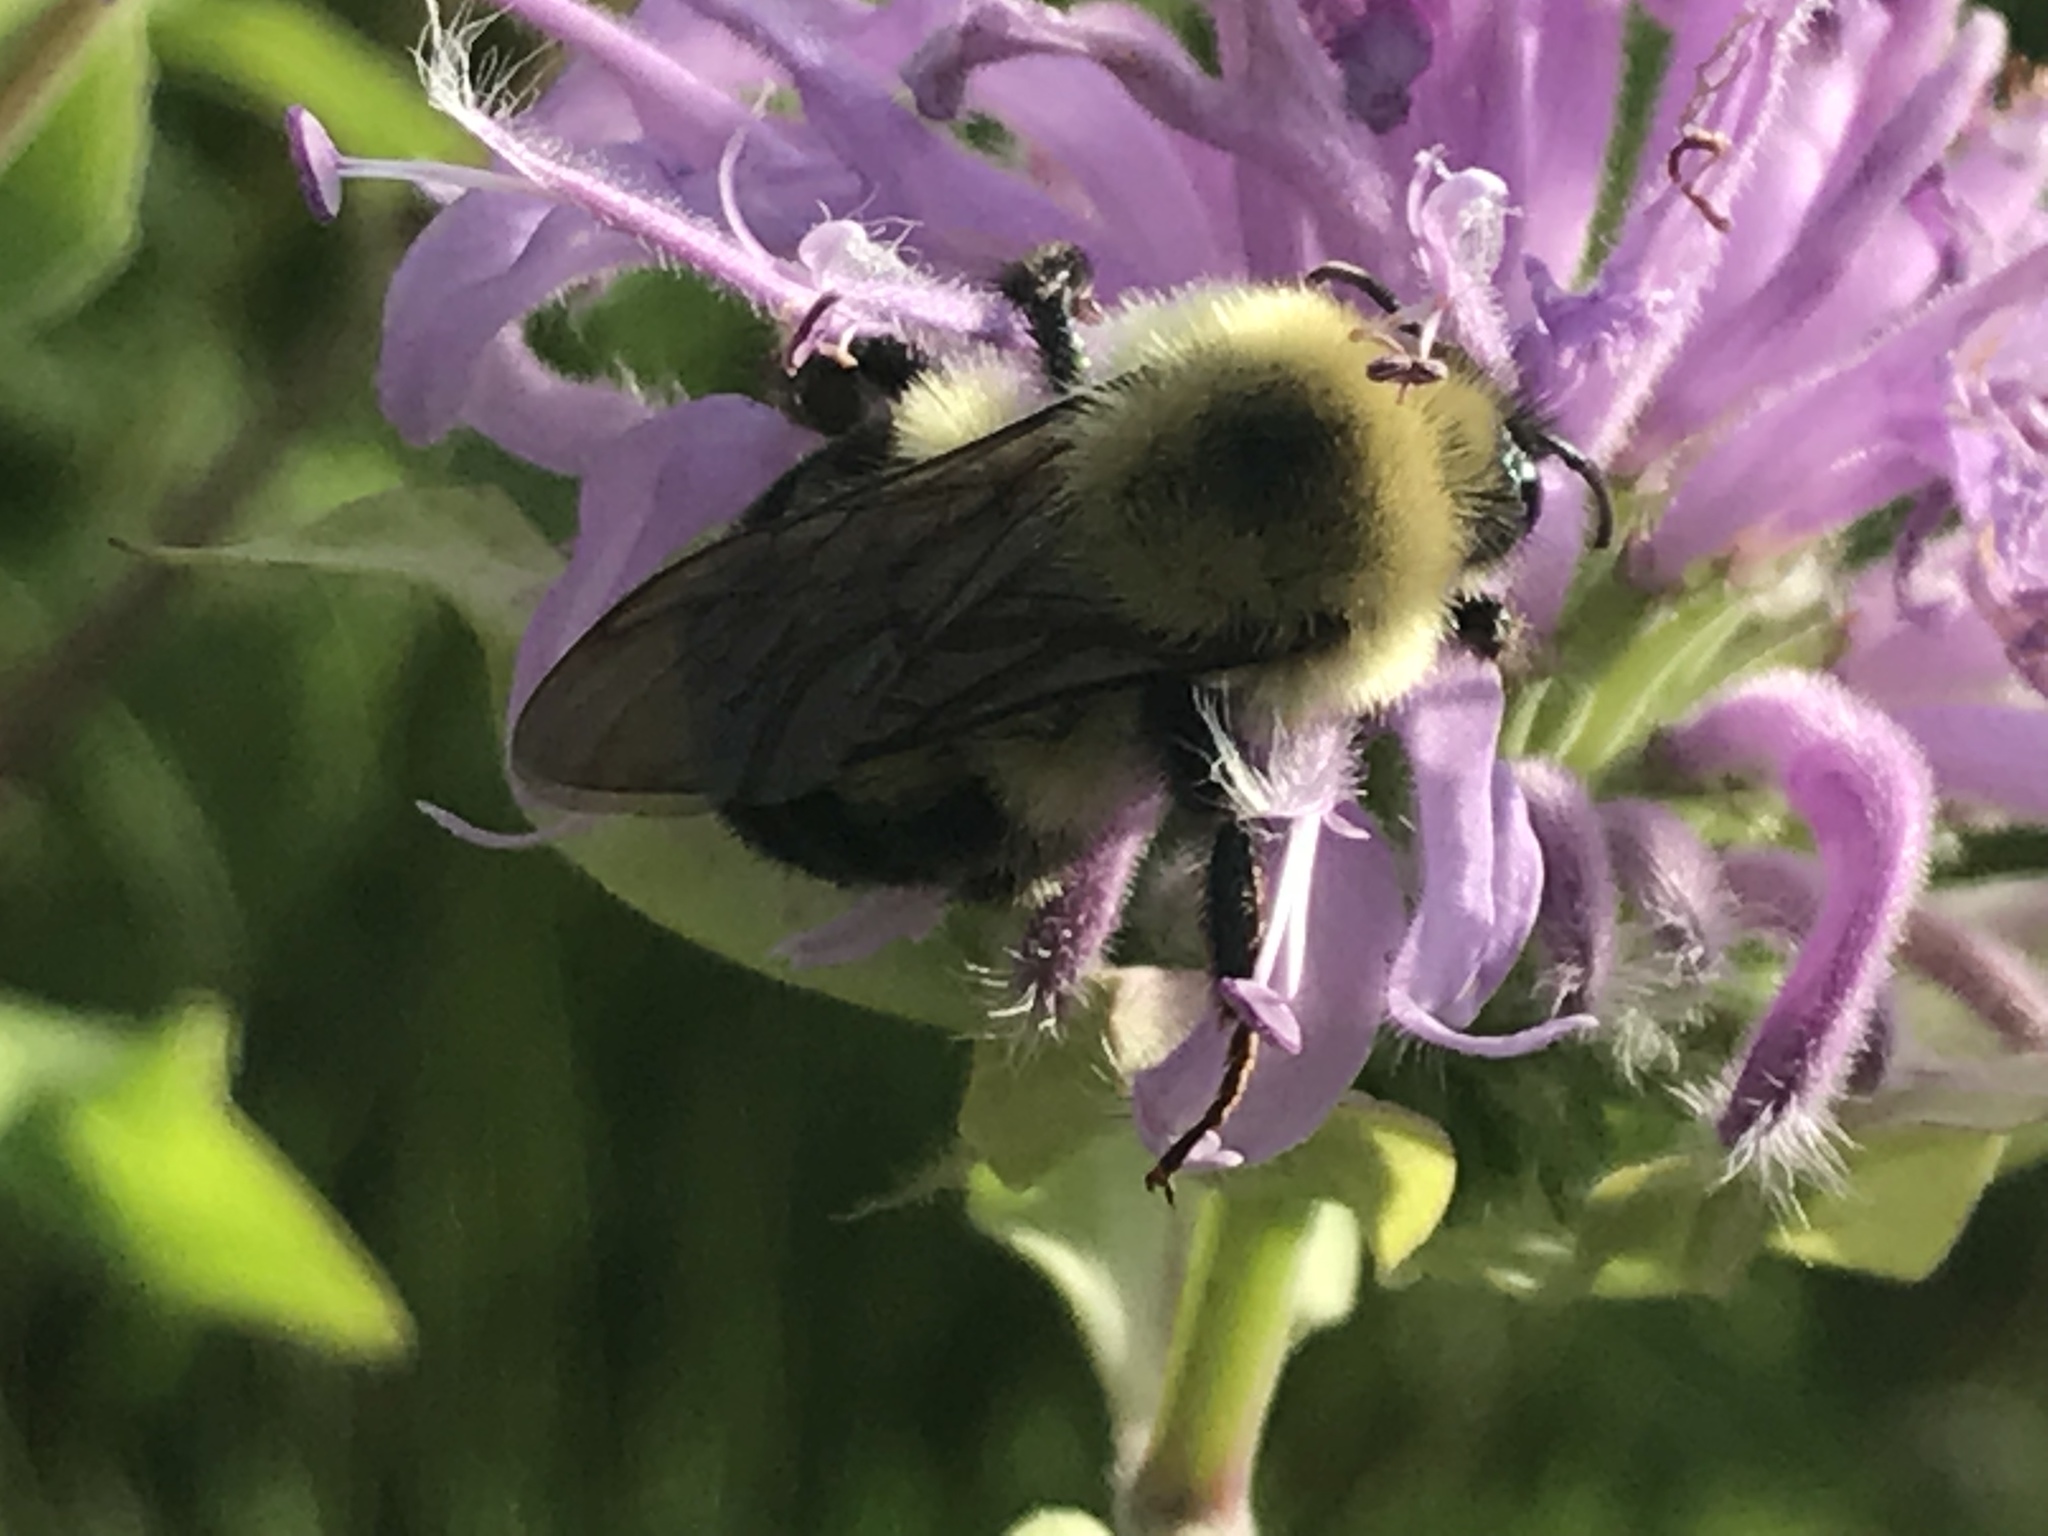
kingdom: Animalia
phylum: Arthropoda
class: Insecta
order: Hymenoptera
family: Apidae
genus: Bombus
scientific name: Bombus bimaculatus
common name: Two-spotted bumble bee
